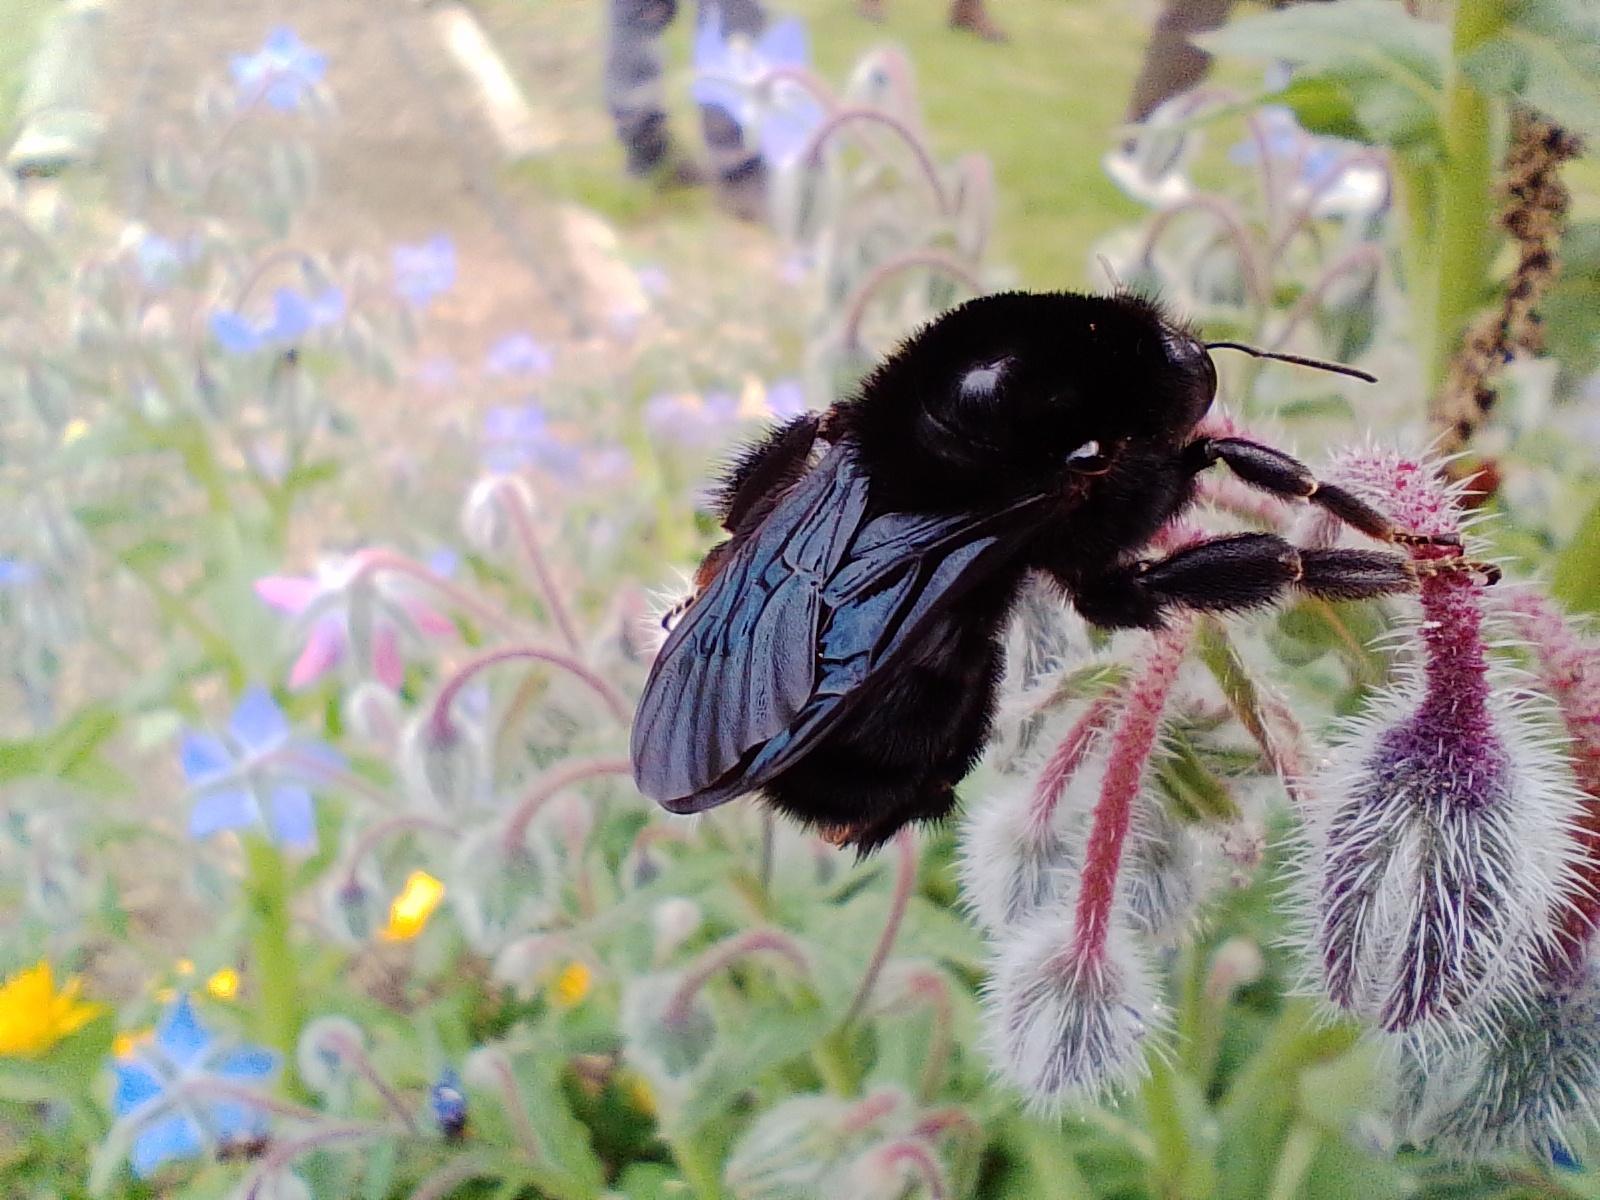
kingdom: Animalia
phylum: Arthropoda
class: Insecta
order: Hymenoptera
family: Apidae
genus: Bombus
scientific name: Bombus pauloensis
